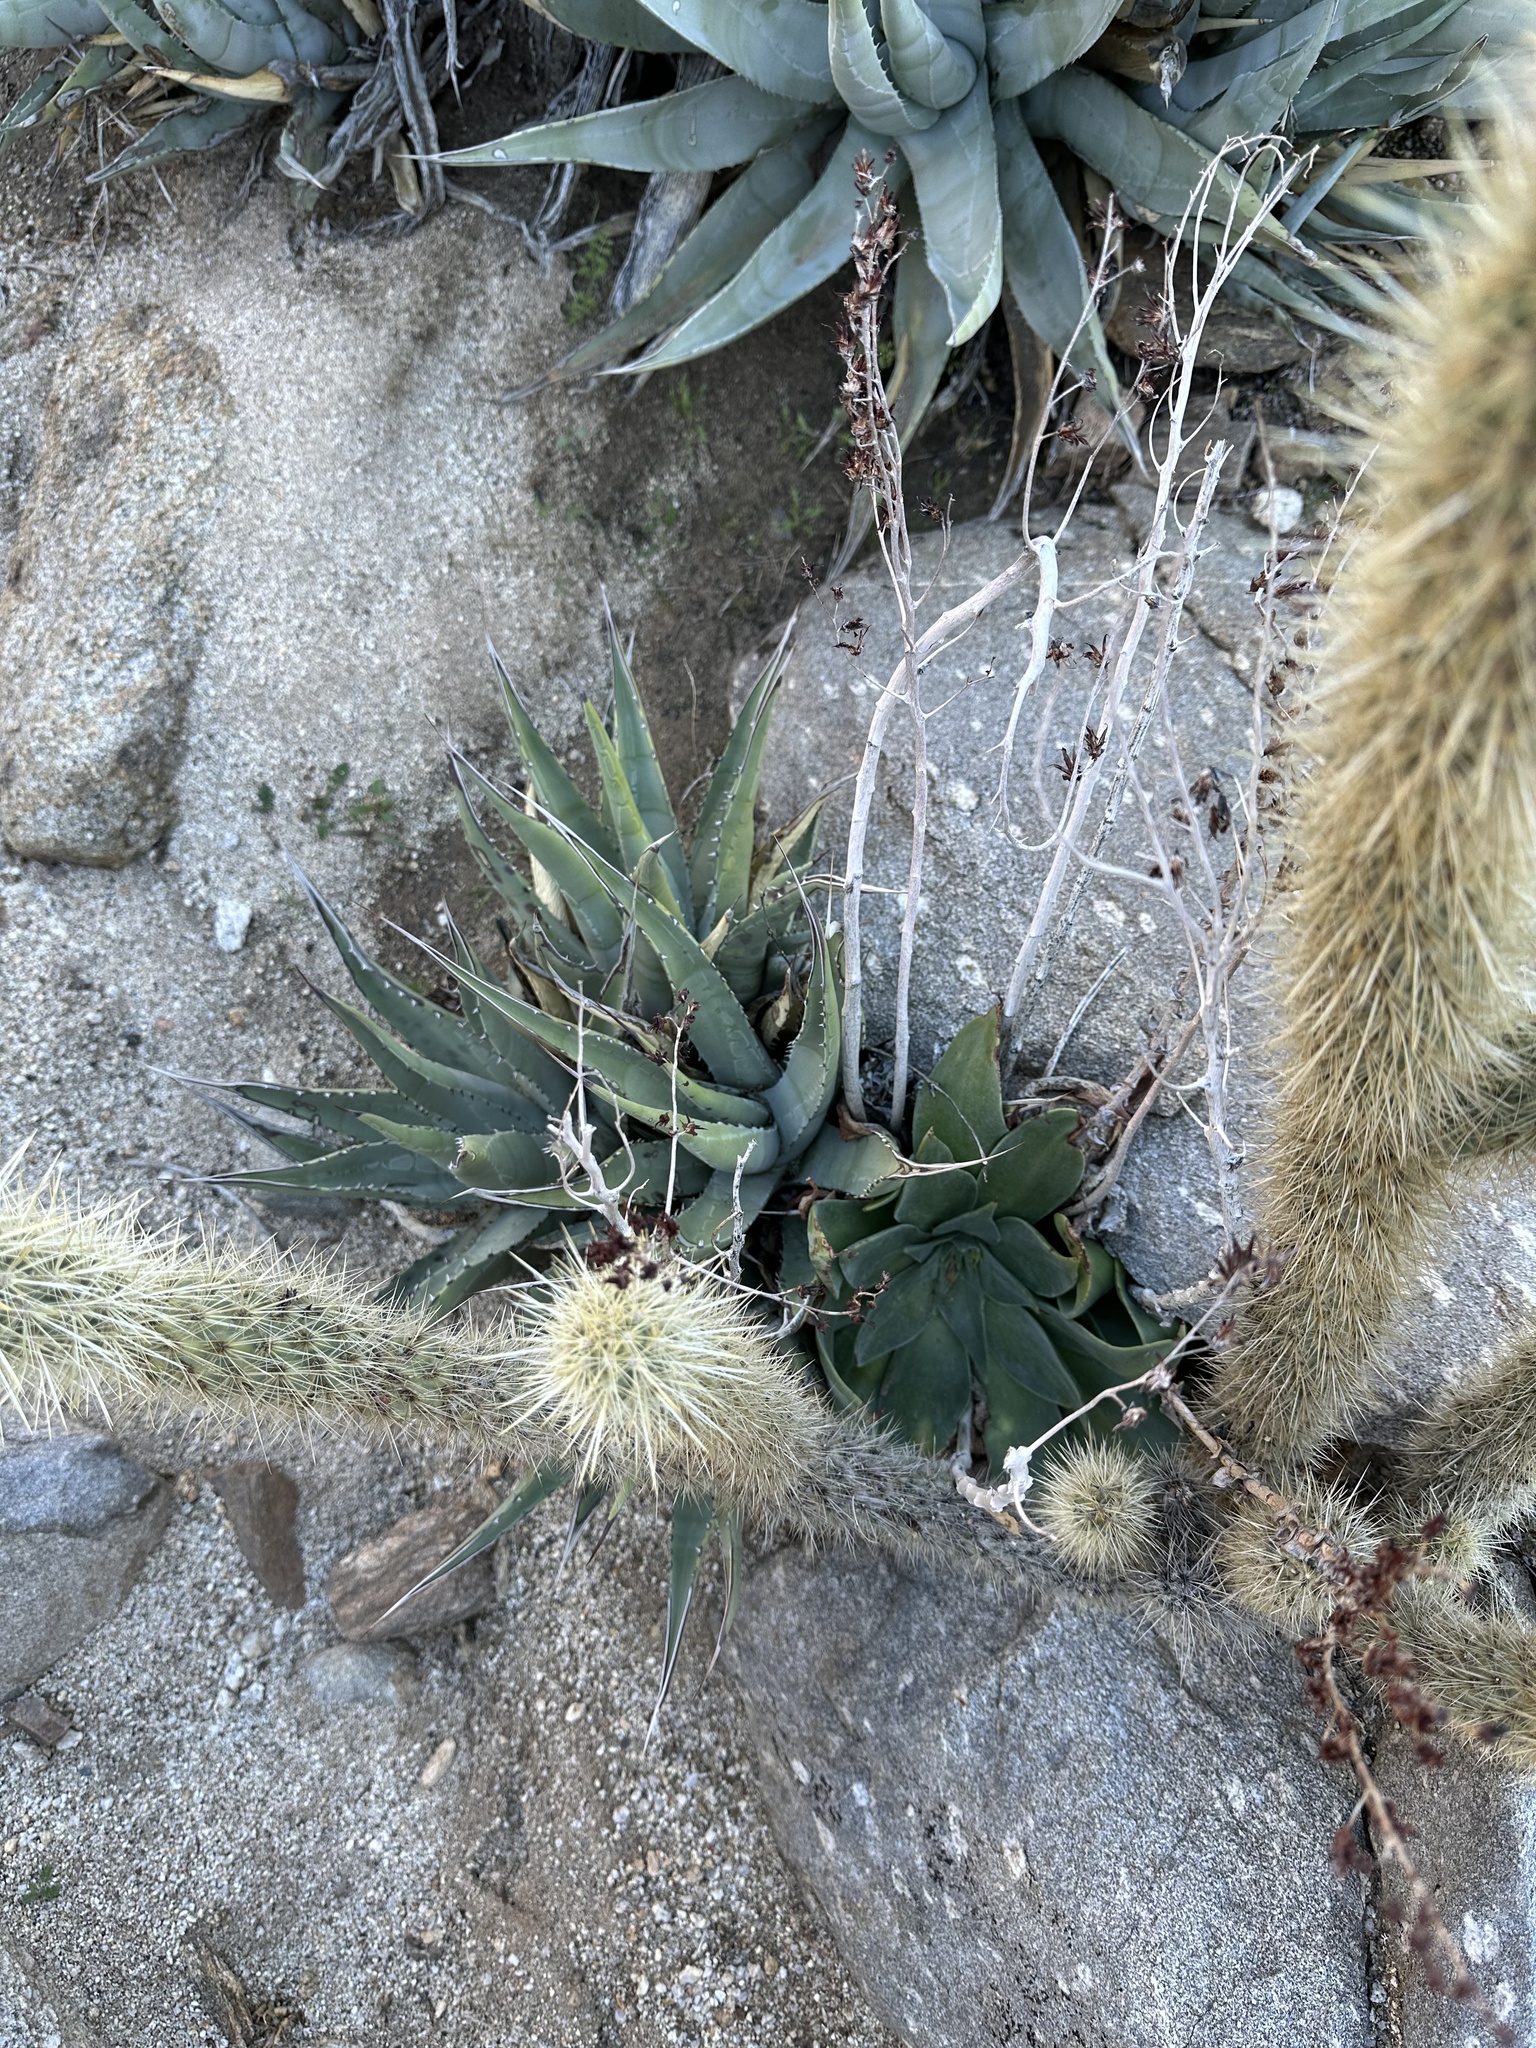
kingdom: Plantae
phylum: Tracheophyta
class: Liliopsida
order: Asparagales
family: Asparagaceae
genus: Agave
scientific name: Agave deserti
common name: Desert agave
